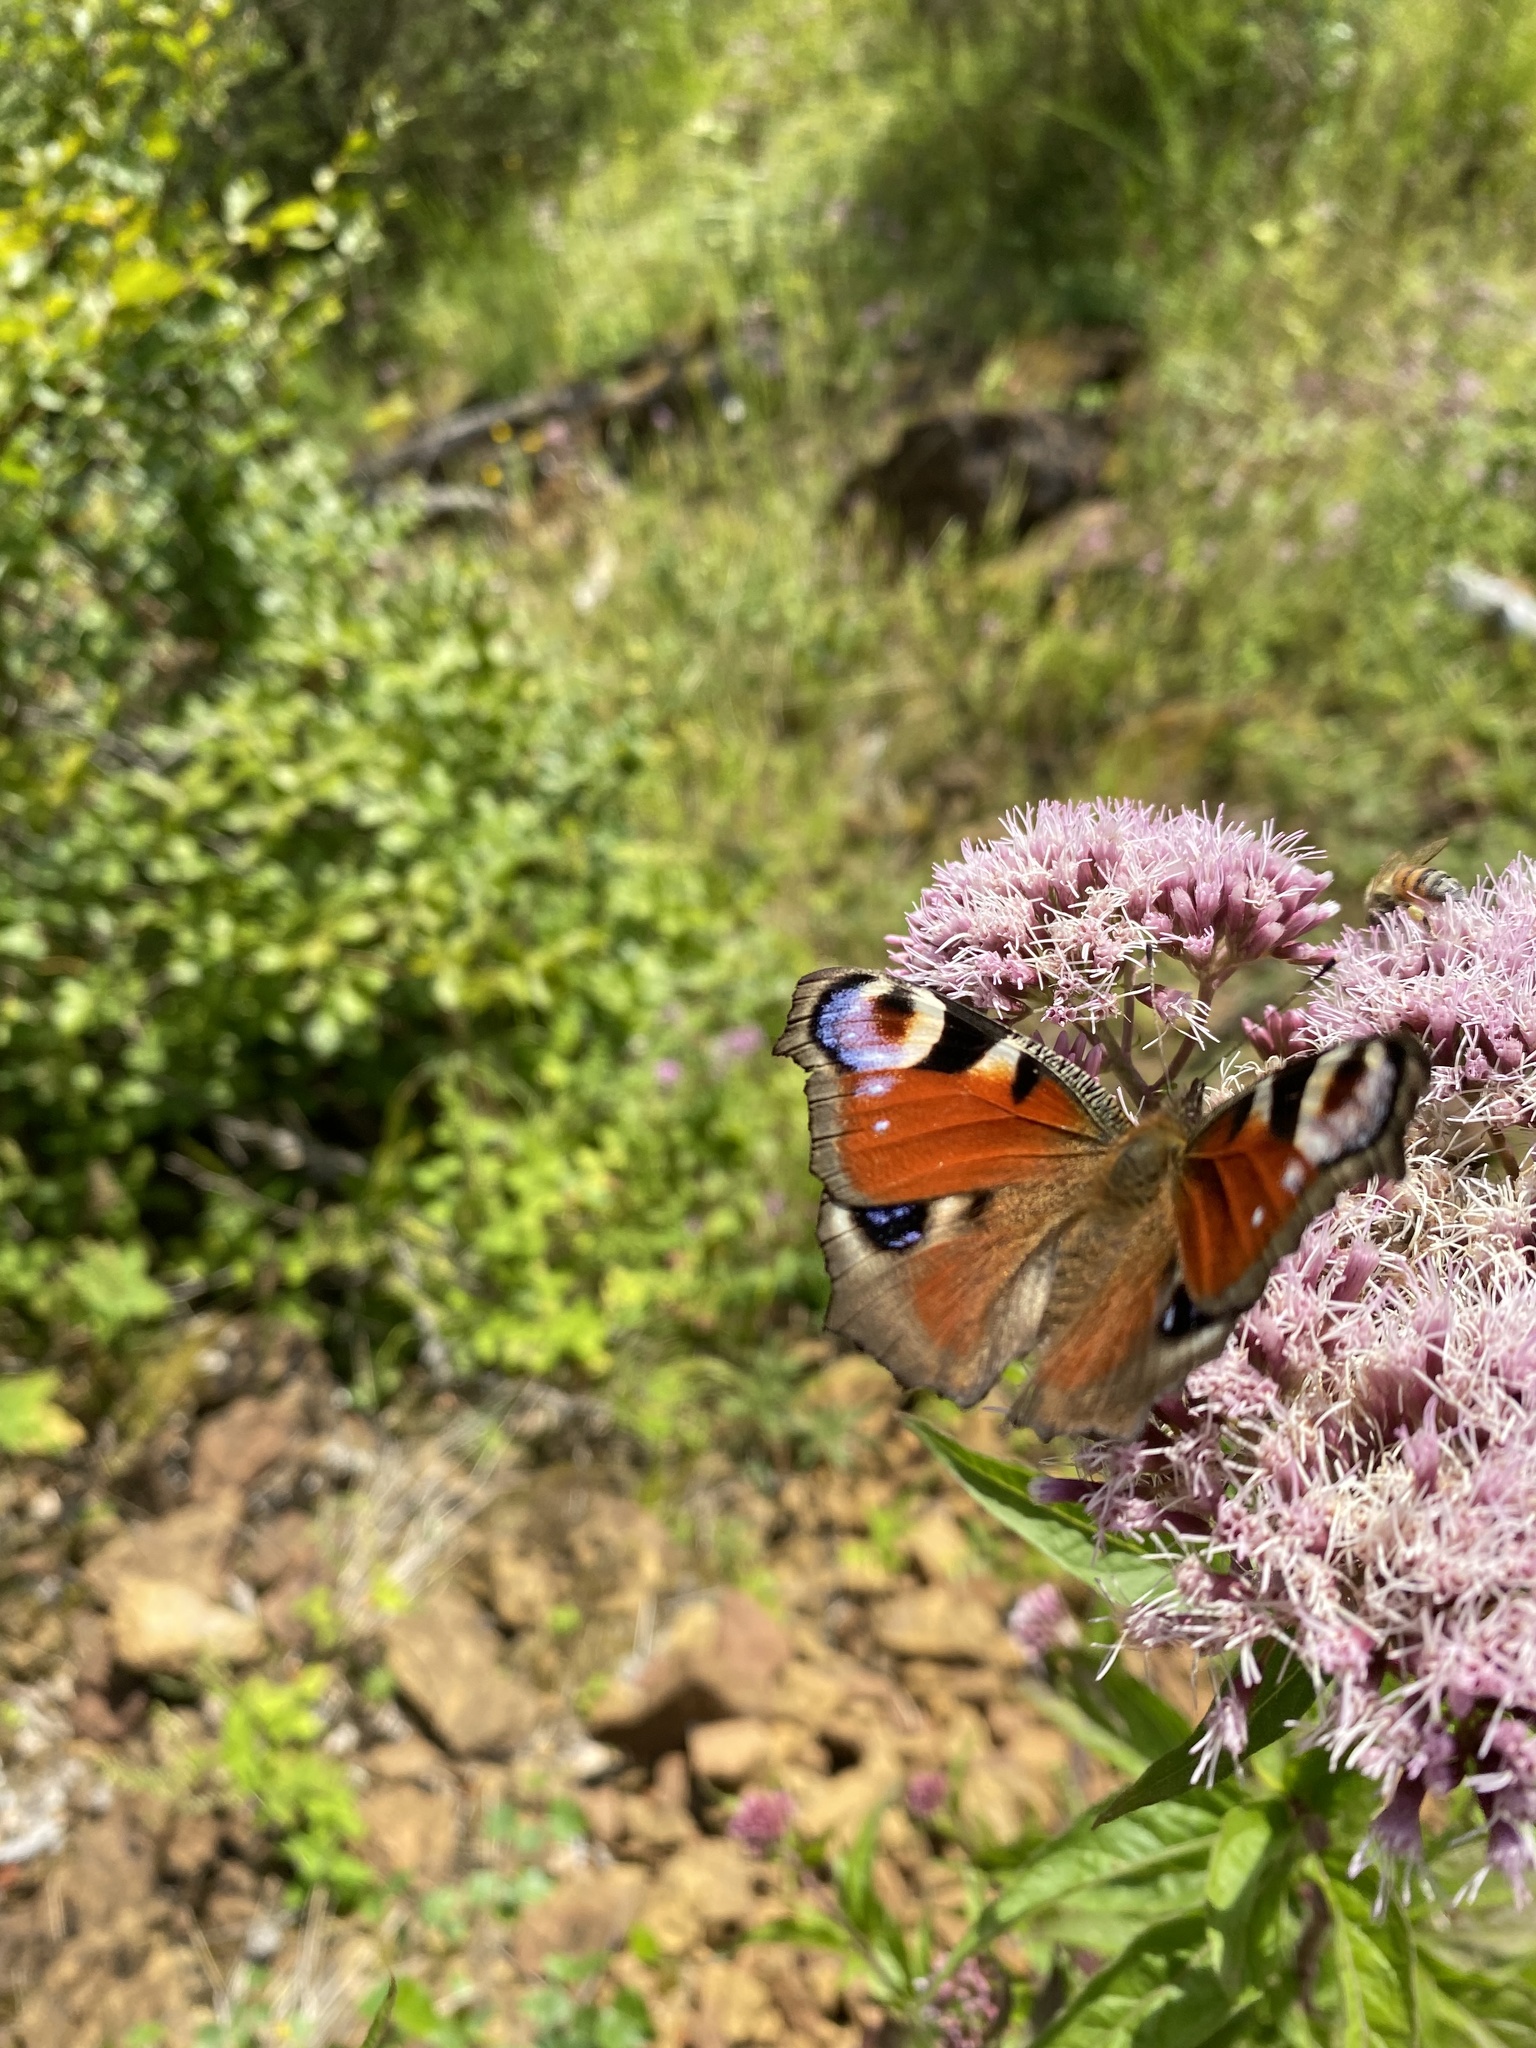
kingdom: Animalia
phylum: Arthropoda
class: Insecta
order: Lepidoptera
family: Nymphalidae
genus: Aglais
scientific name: Aglais io
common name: Peacock
